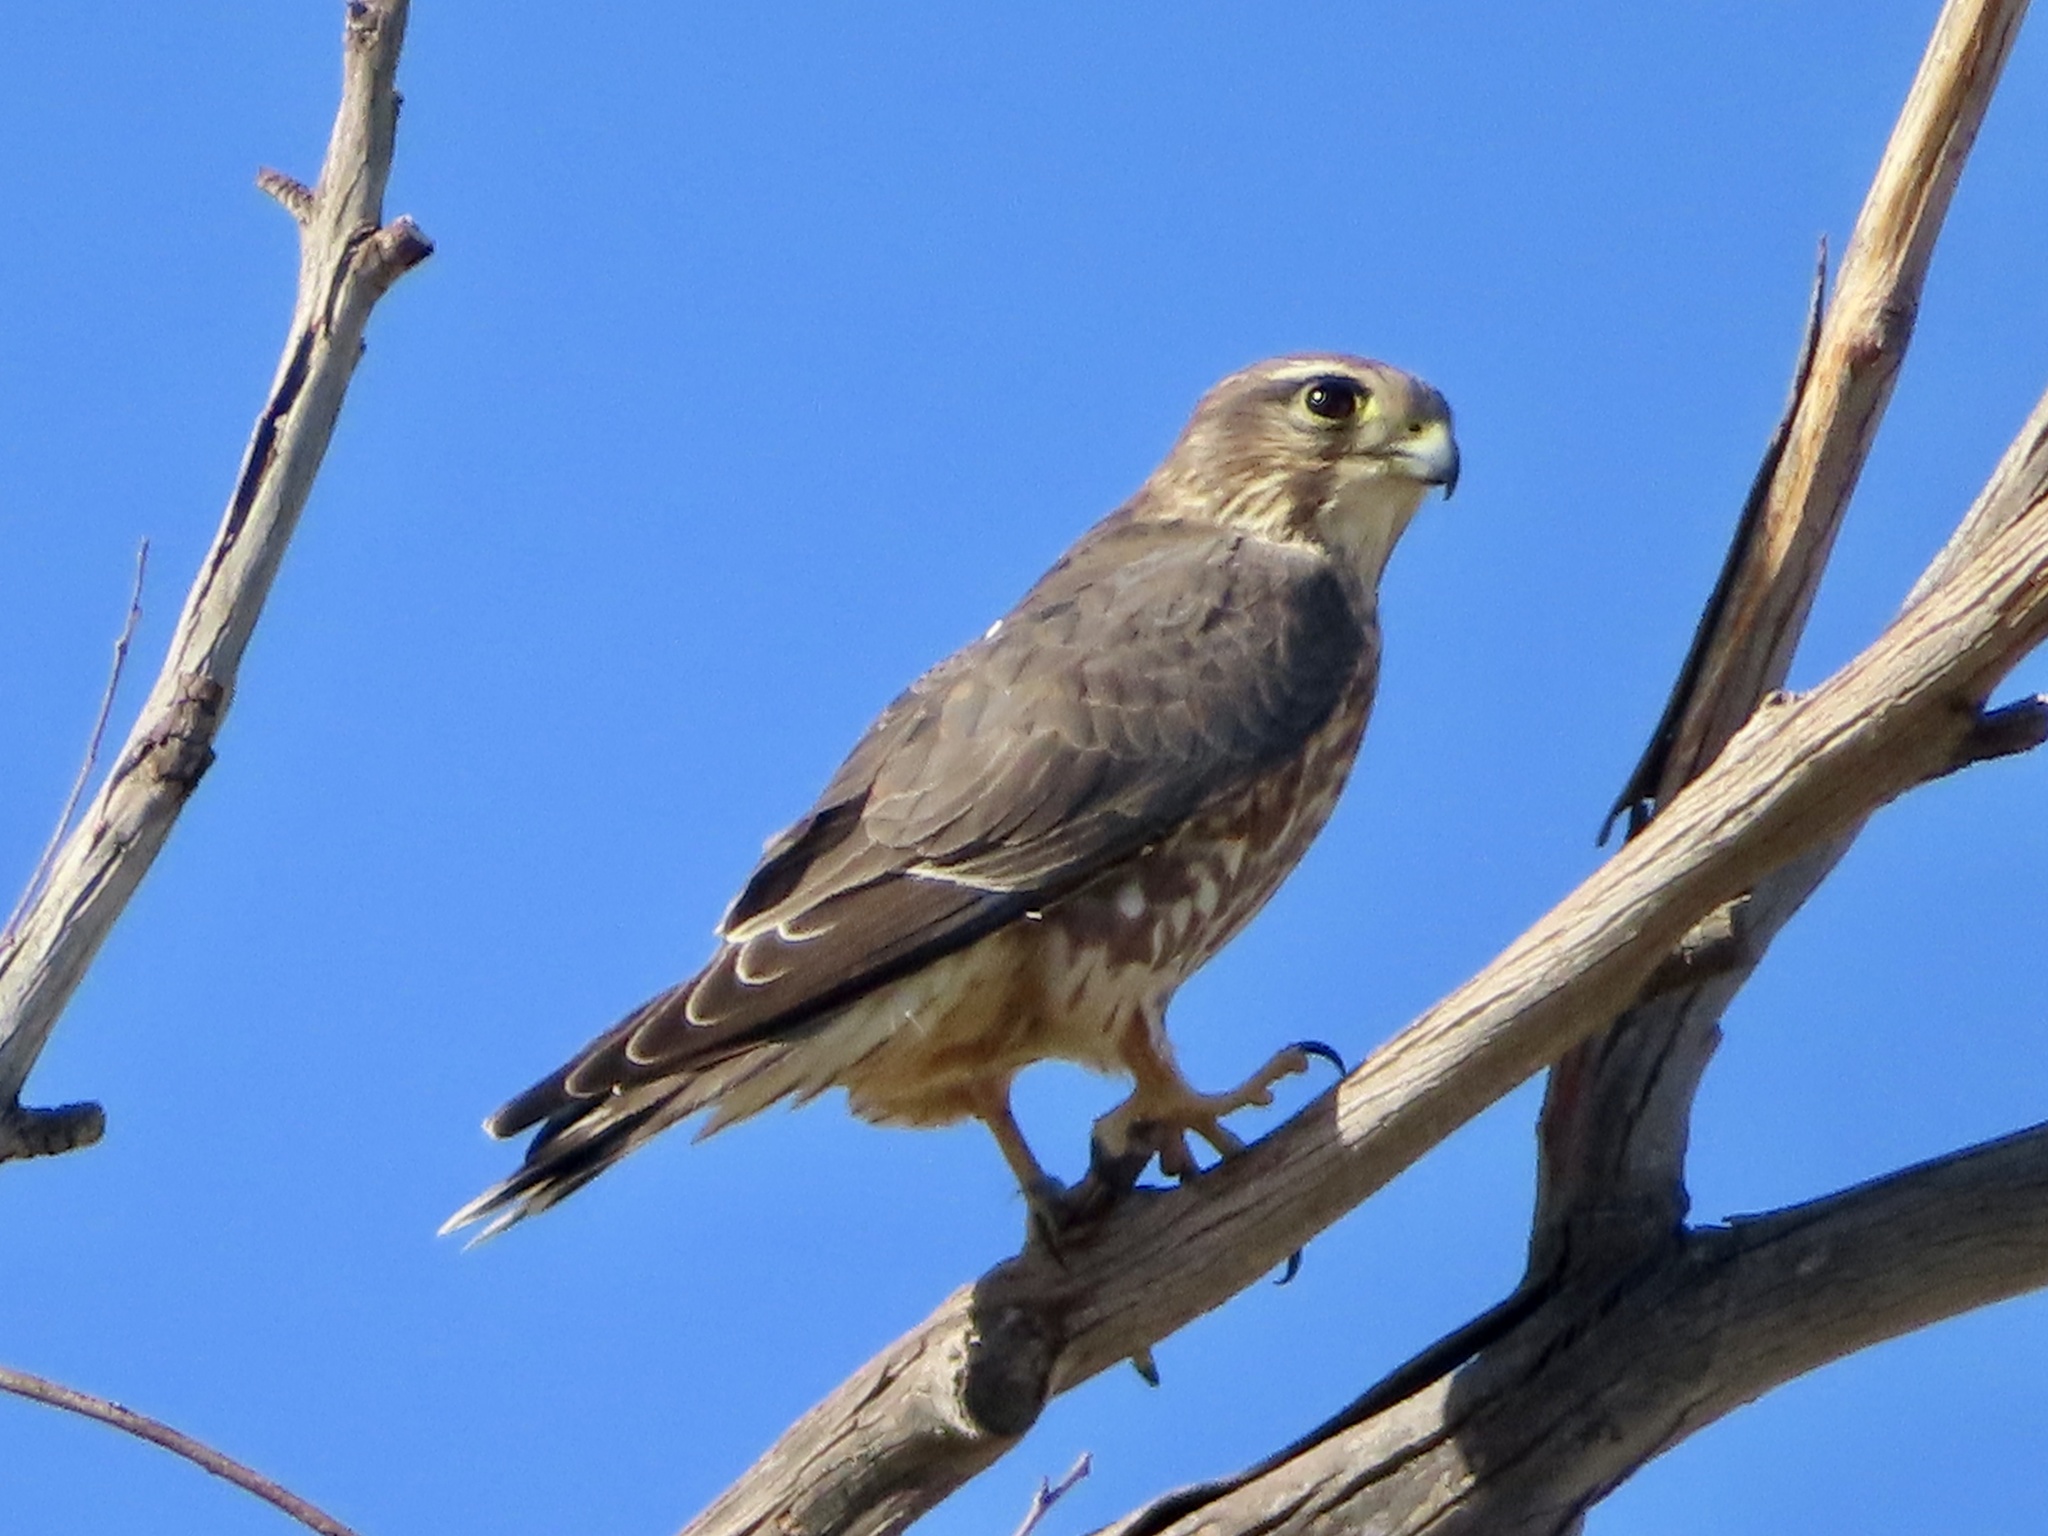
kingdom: Animalia
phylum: Chordata
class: Aves
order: Falconiformes
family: Falconidae
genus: Falco
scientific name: Falco columbarius
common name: Merlin
